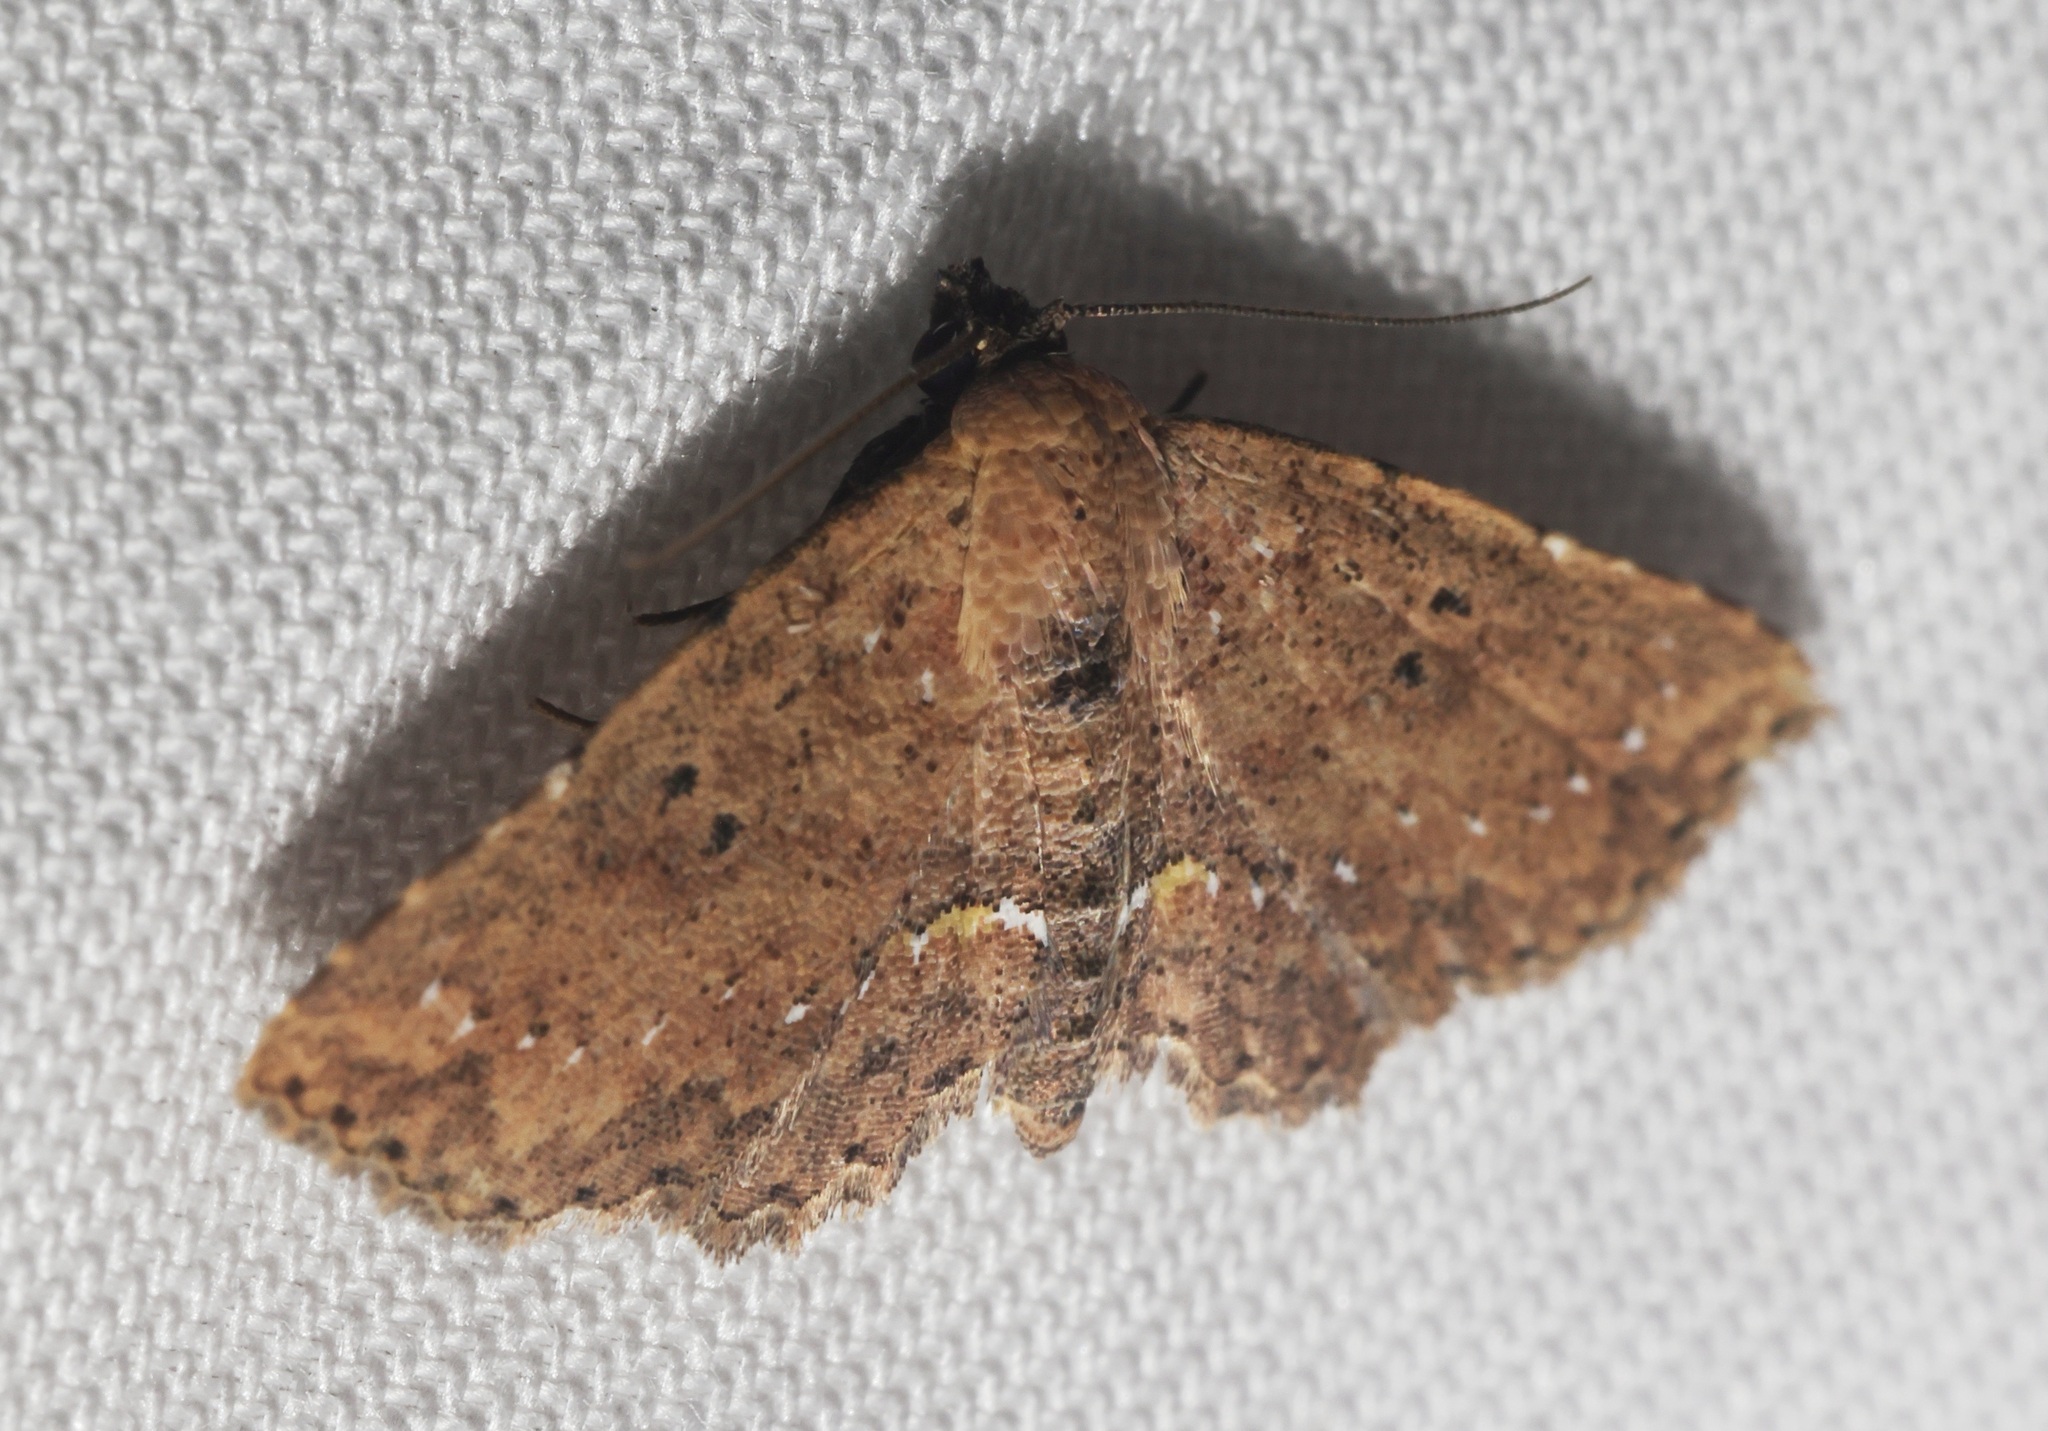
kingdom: Animalia
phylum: Arthropoda
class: Insecta
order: Lepidoptera
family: Noctuidae
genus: Cerynea
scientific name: Cerynea discontenta
